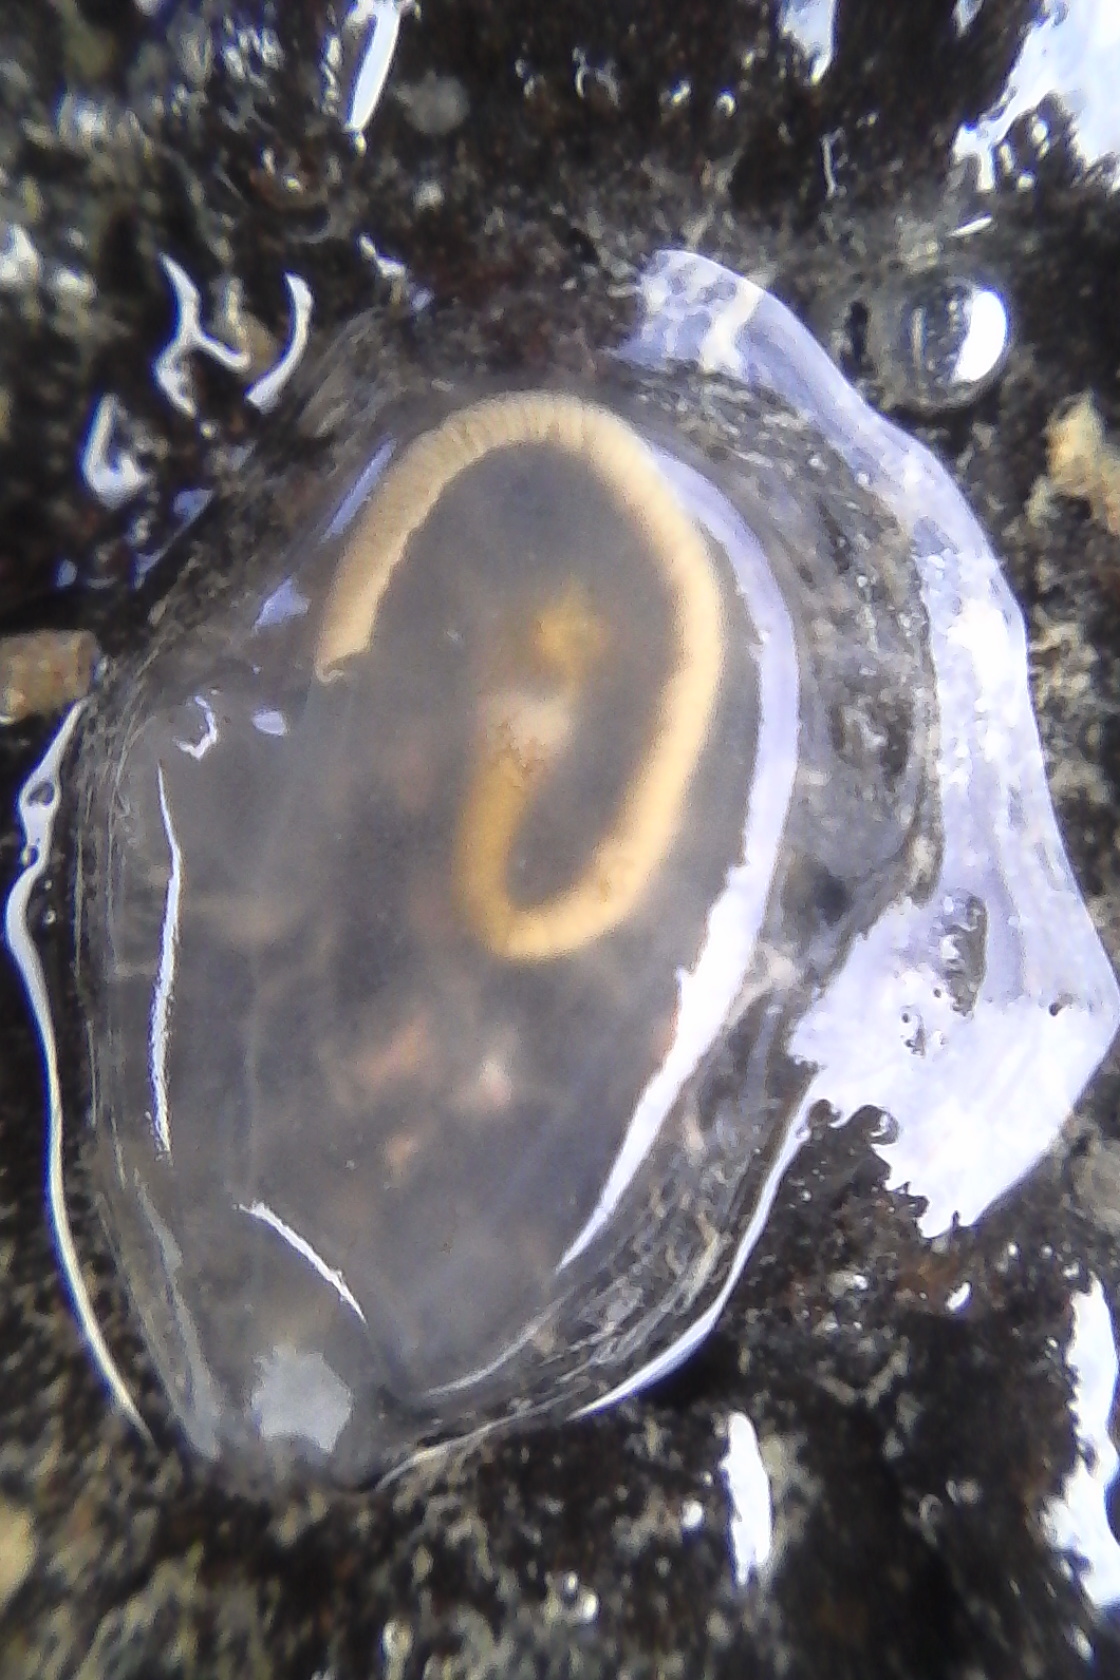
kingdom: Animalia
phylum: Chordata
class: Ascidiacea
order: Phlebobranchia
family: Agneziidae
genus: Agnezia
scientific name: Agnezia glaciata
